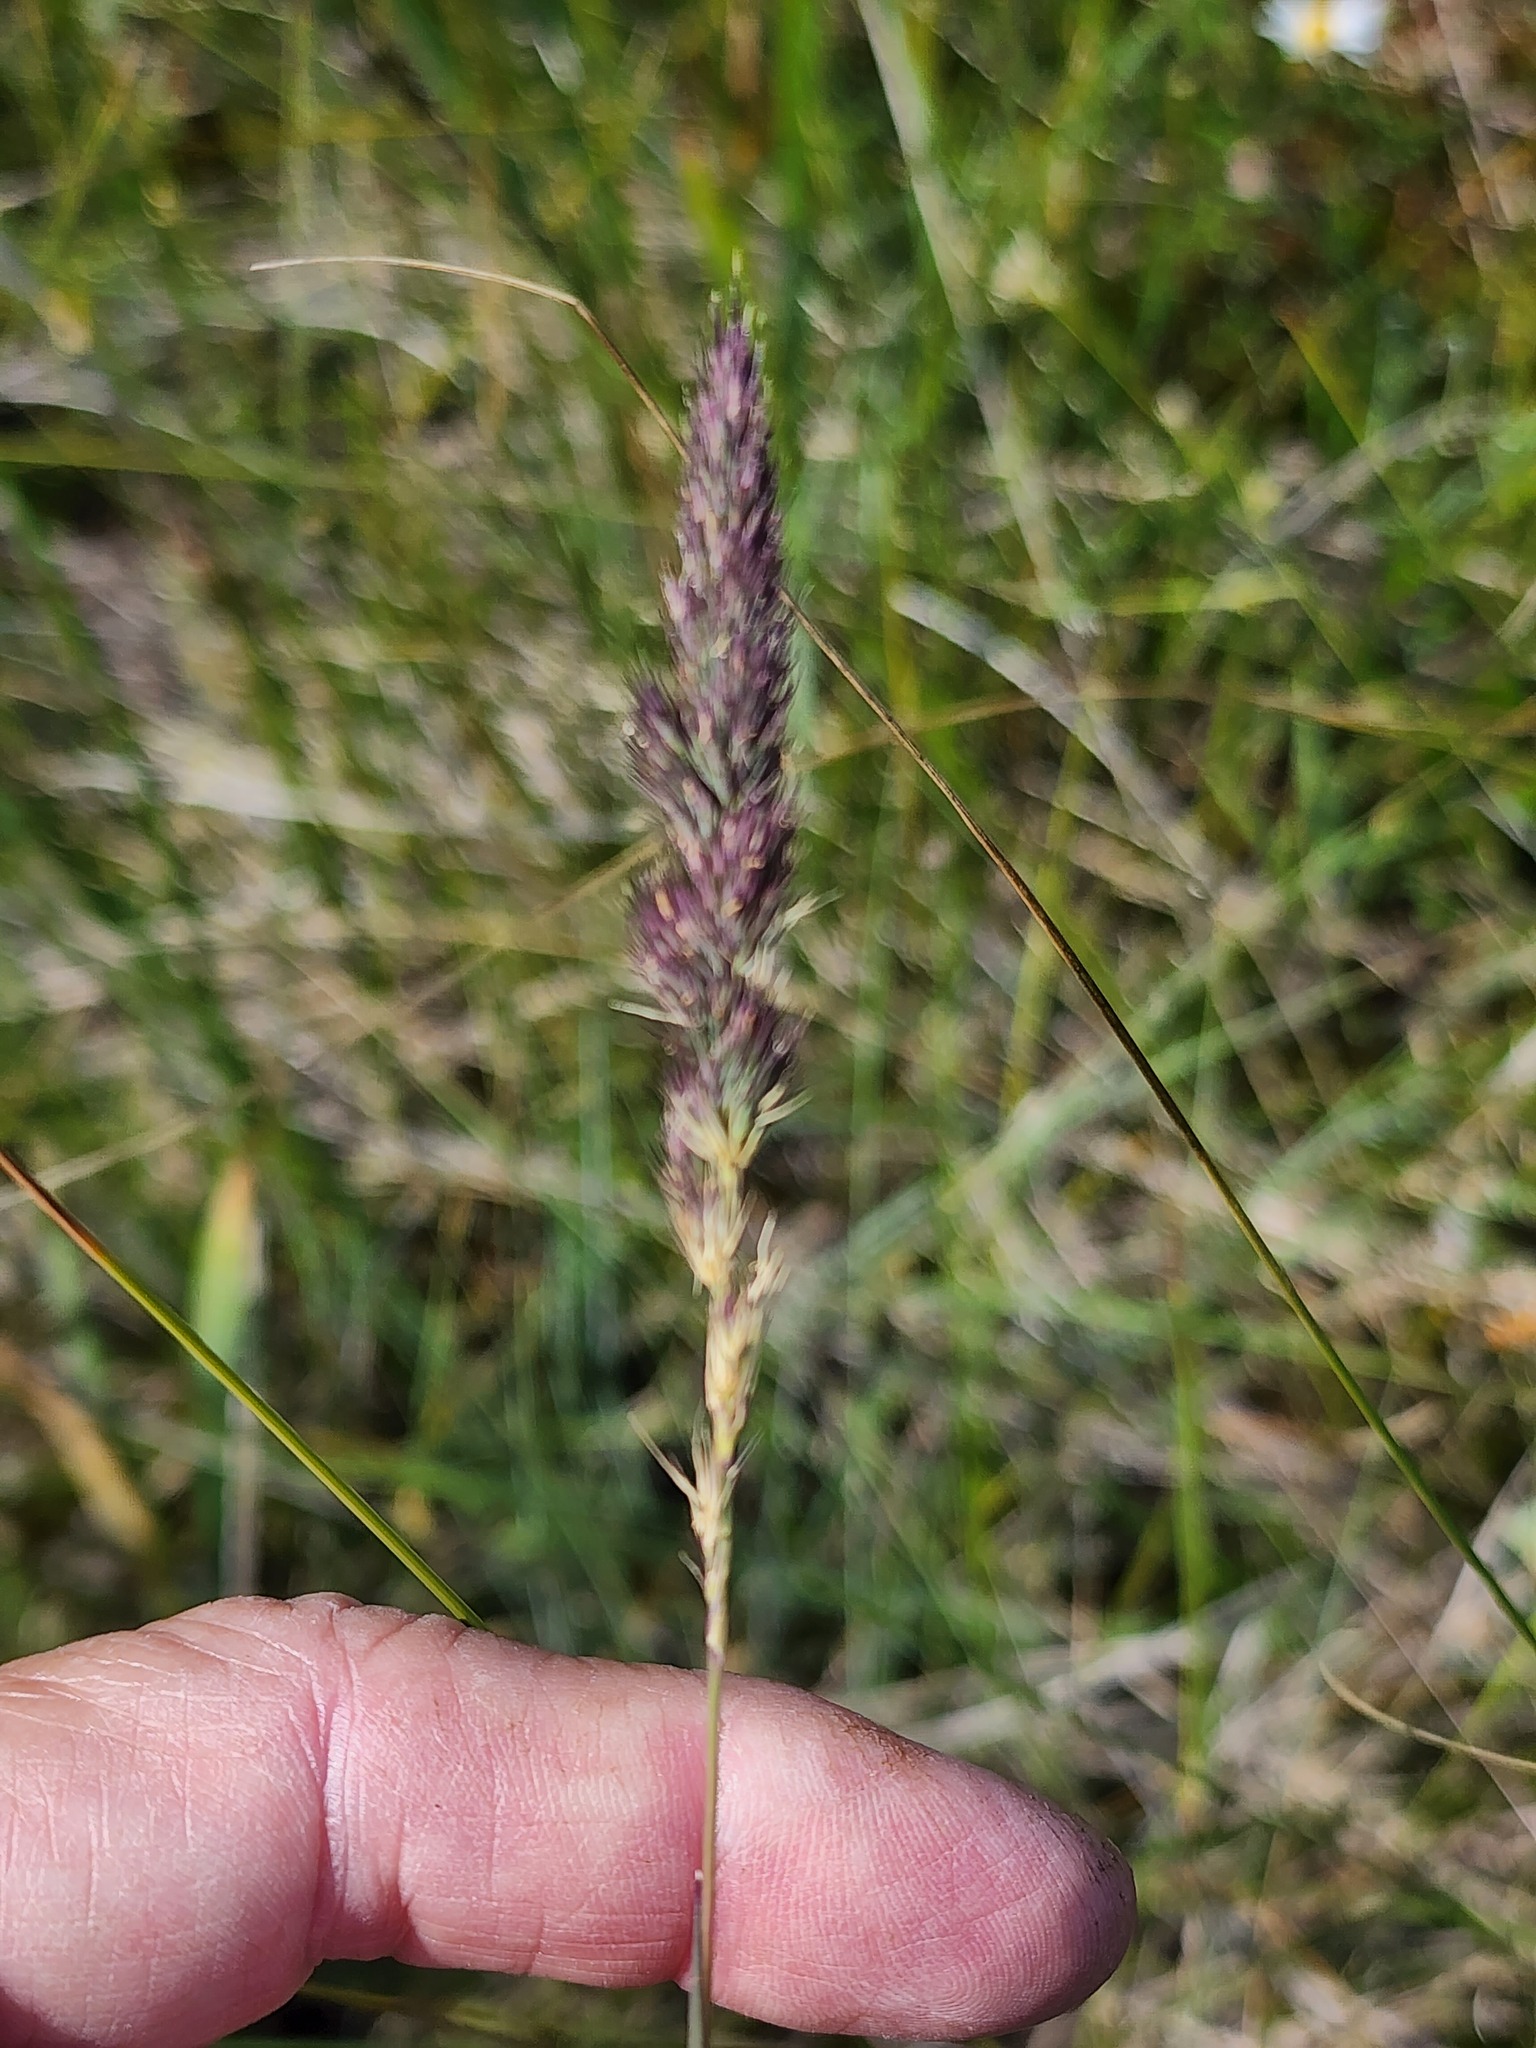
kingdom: Plantae
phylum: Tracheophyta
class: Liliopsida
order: Poales
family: Poaceae
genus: Muhlenbergia
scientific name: Muhlenbergia glomerata
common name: Bog muhly
